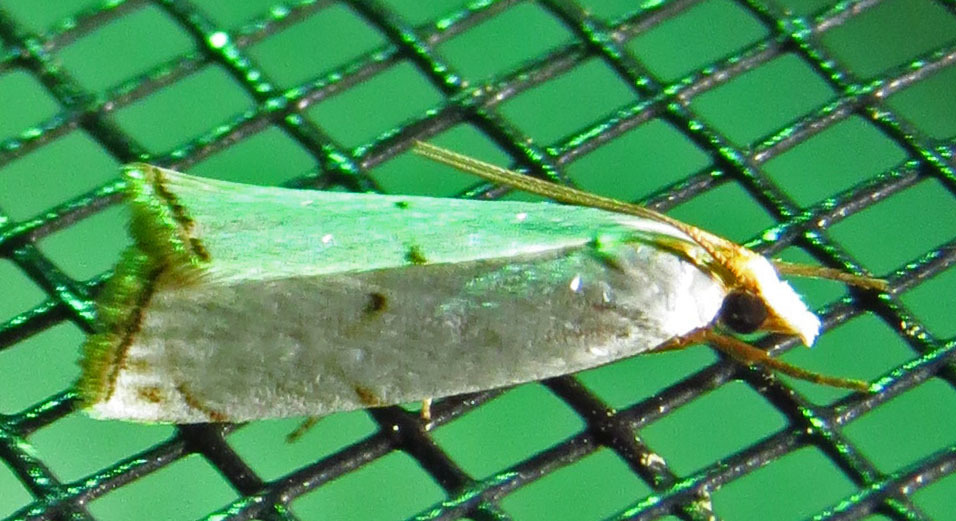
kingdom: Animalia
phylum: Arthropoda
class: Insecta
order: Lepidoptera
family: Crambidae
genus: Argyria
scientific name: Argyria pusillalis
